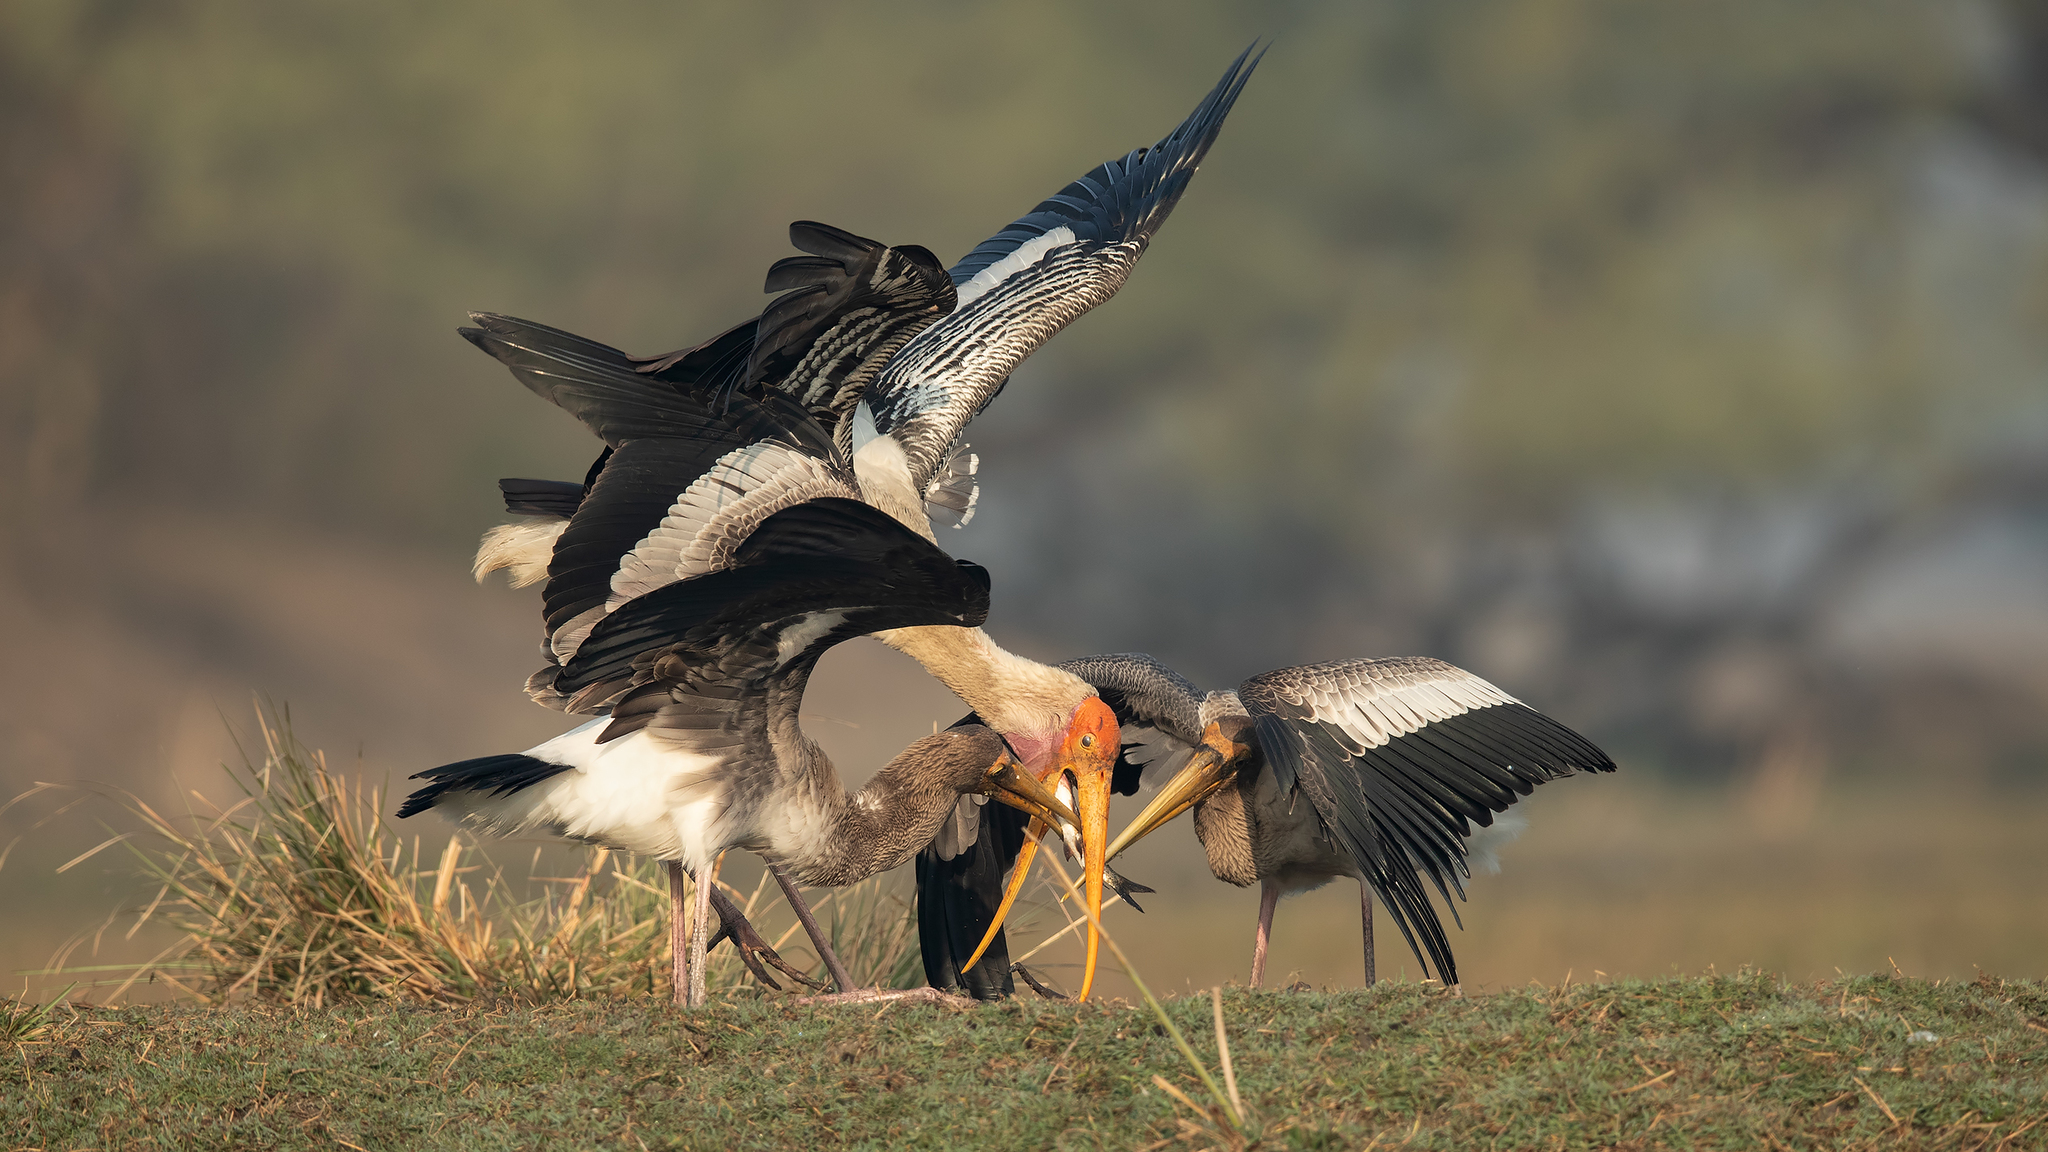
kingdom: Animalia
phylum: Chordata
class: Aves
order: Ciconiiformes
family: Ciconiidae
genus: Mycteria
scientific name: Mycteria leucocephala
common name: Painted stork
